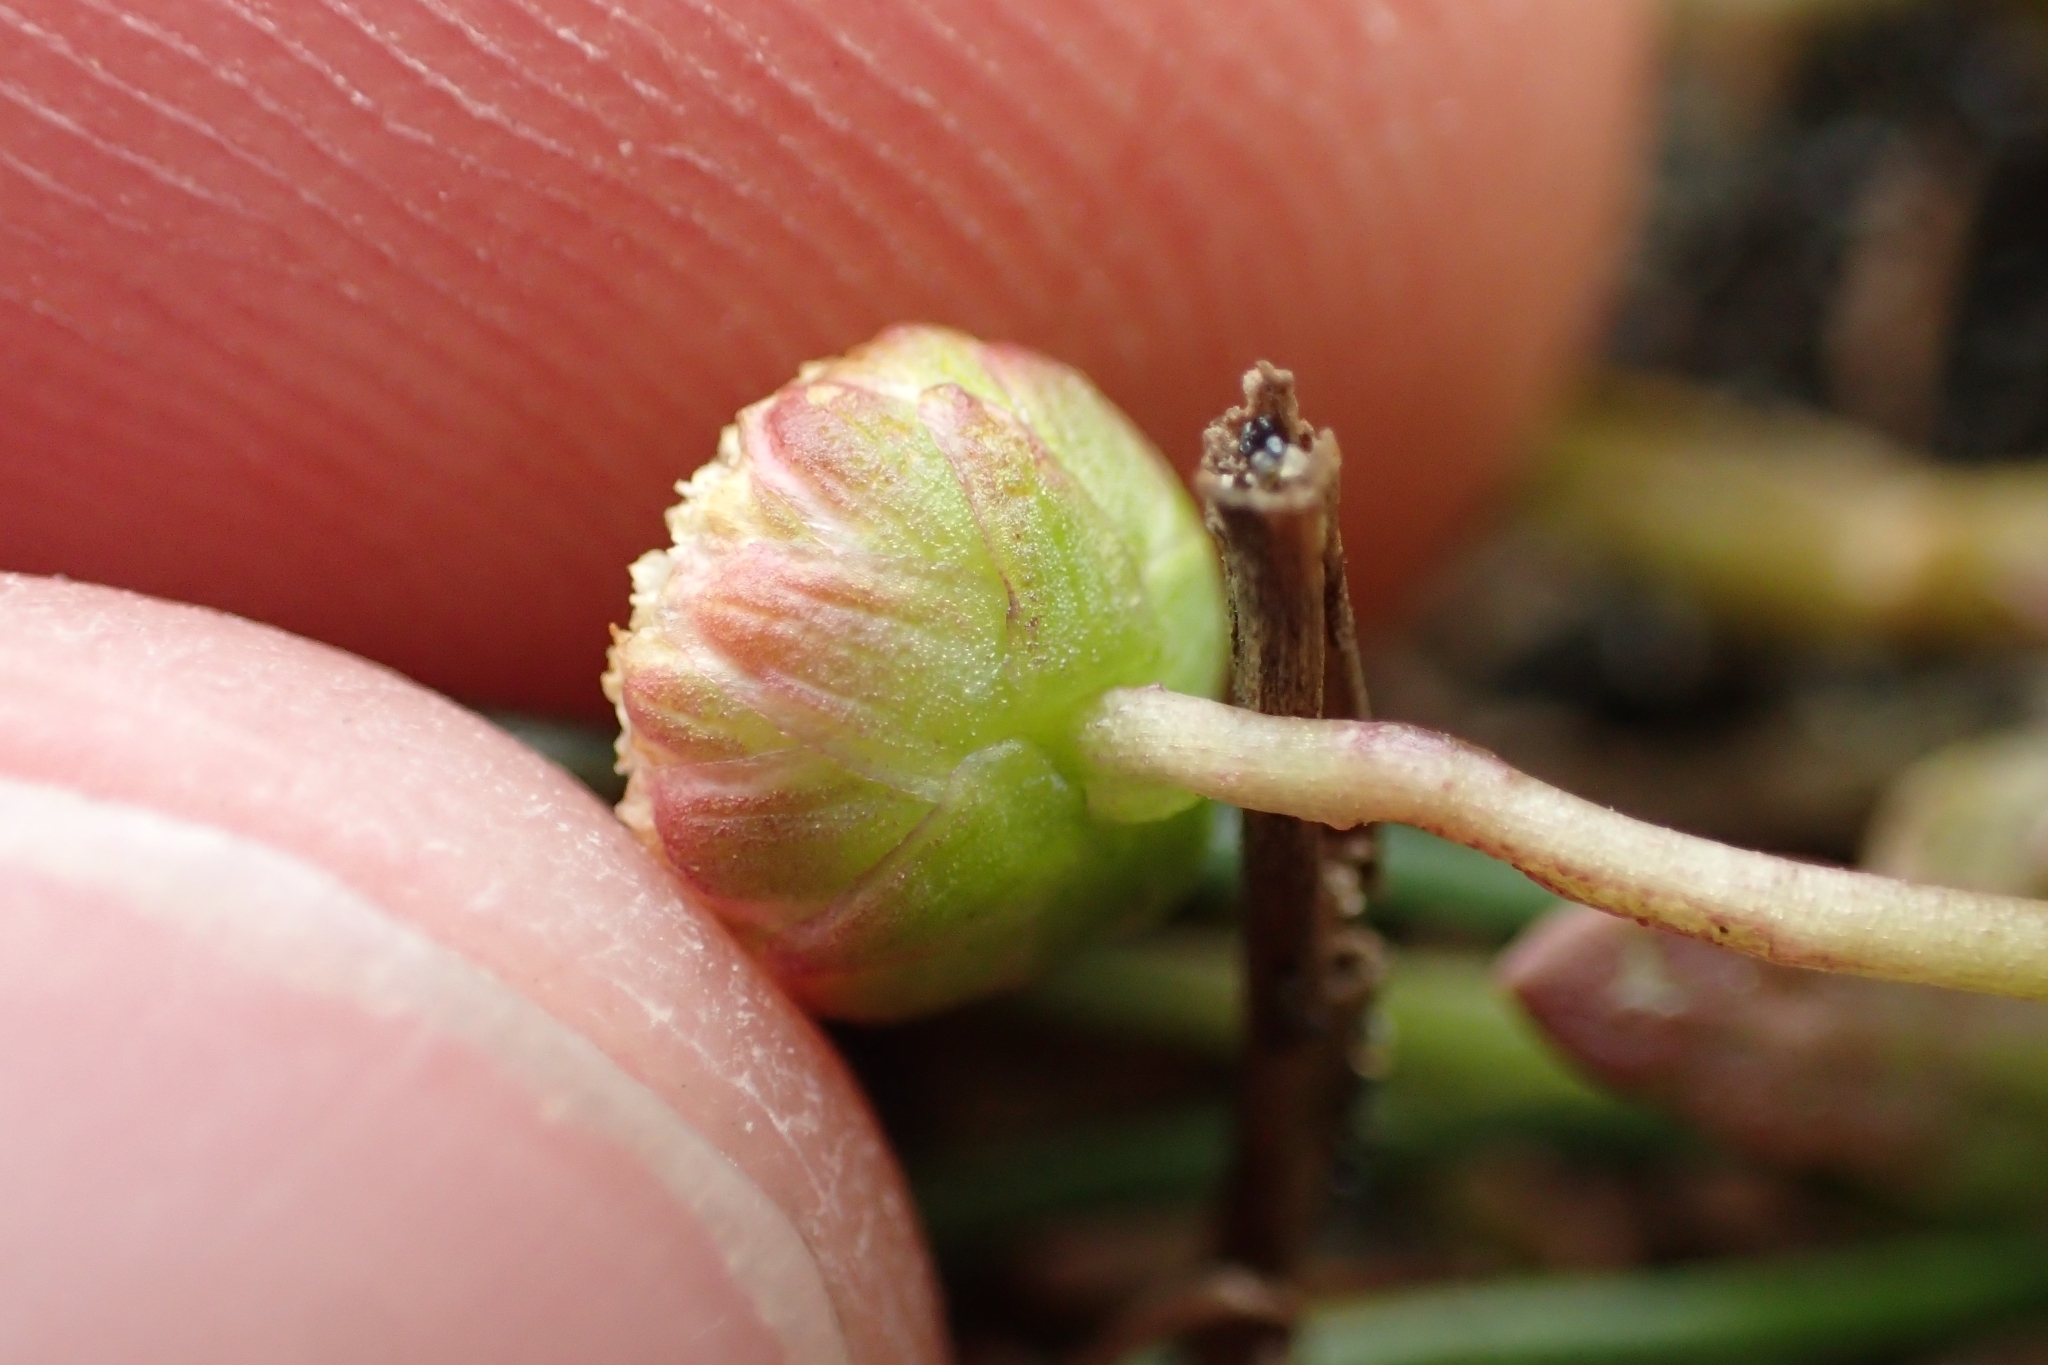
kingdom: Plantae
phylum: Tracheophyta
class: Magnoliopsida
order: Asterales
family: Asteraceae
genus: Cotula
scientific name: Cotula coronopifolia
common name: Buttonweed
